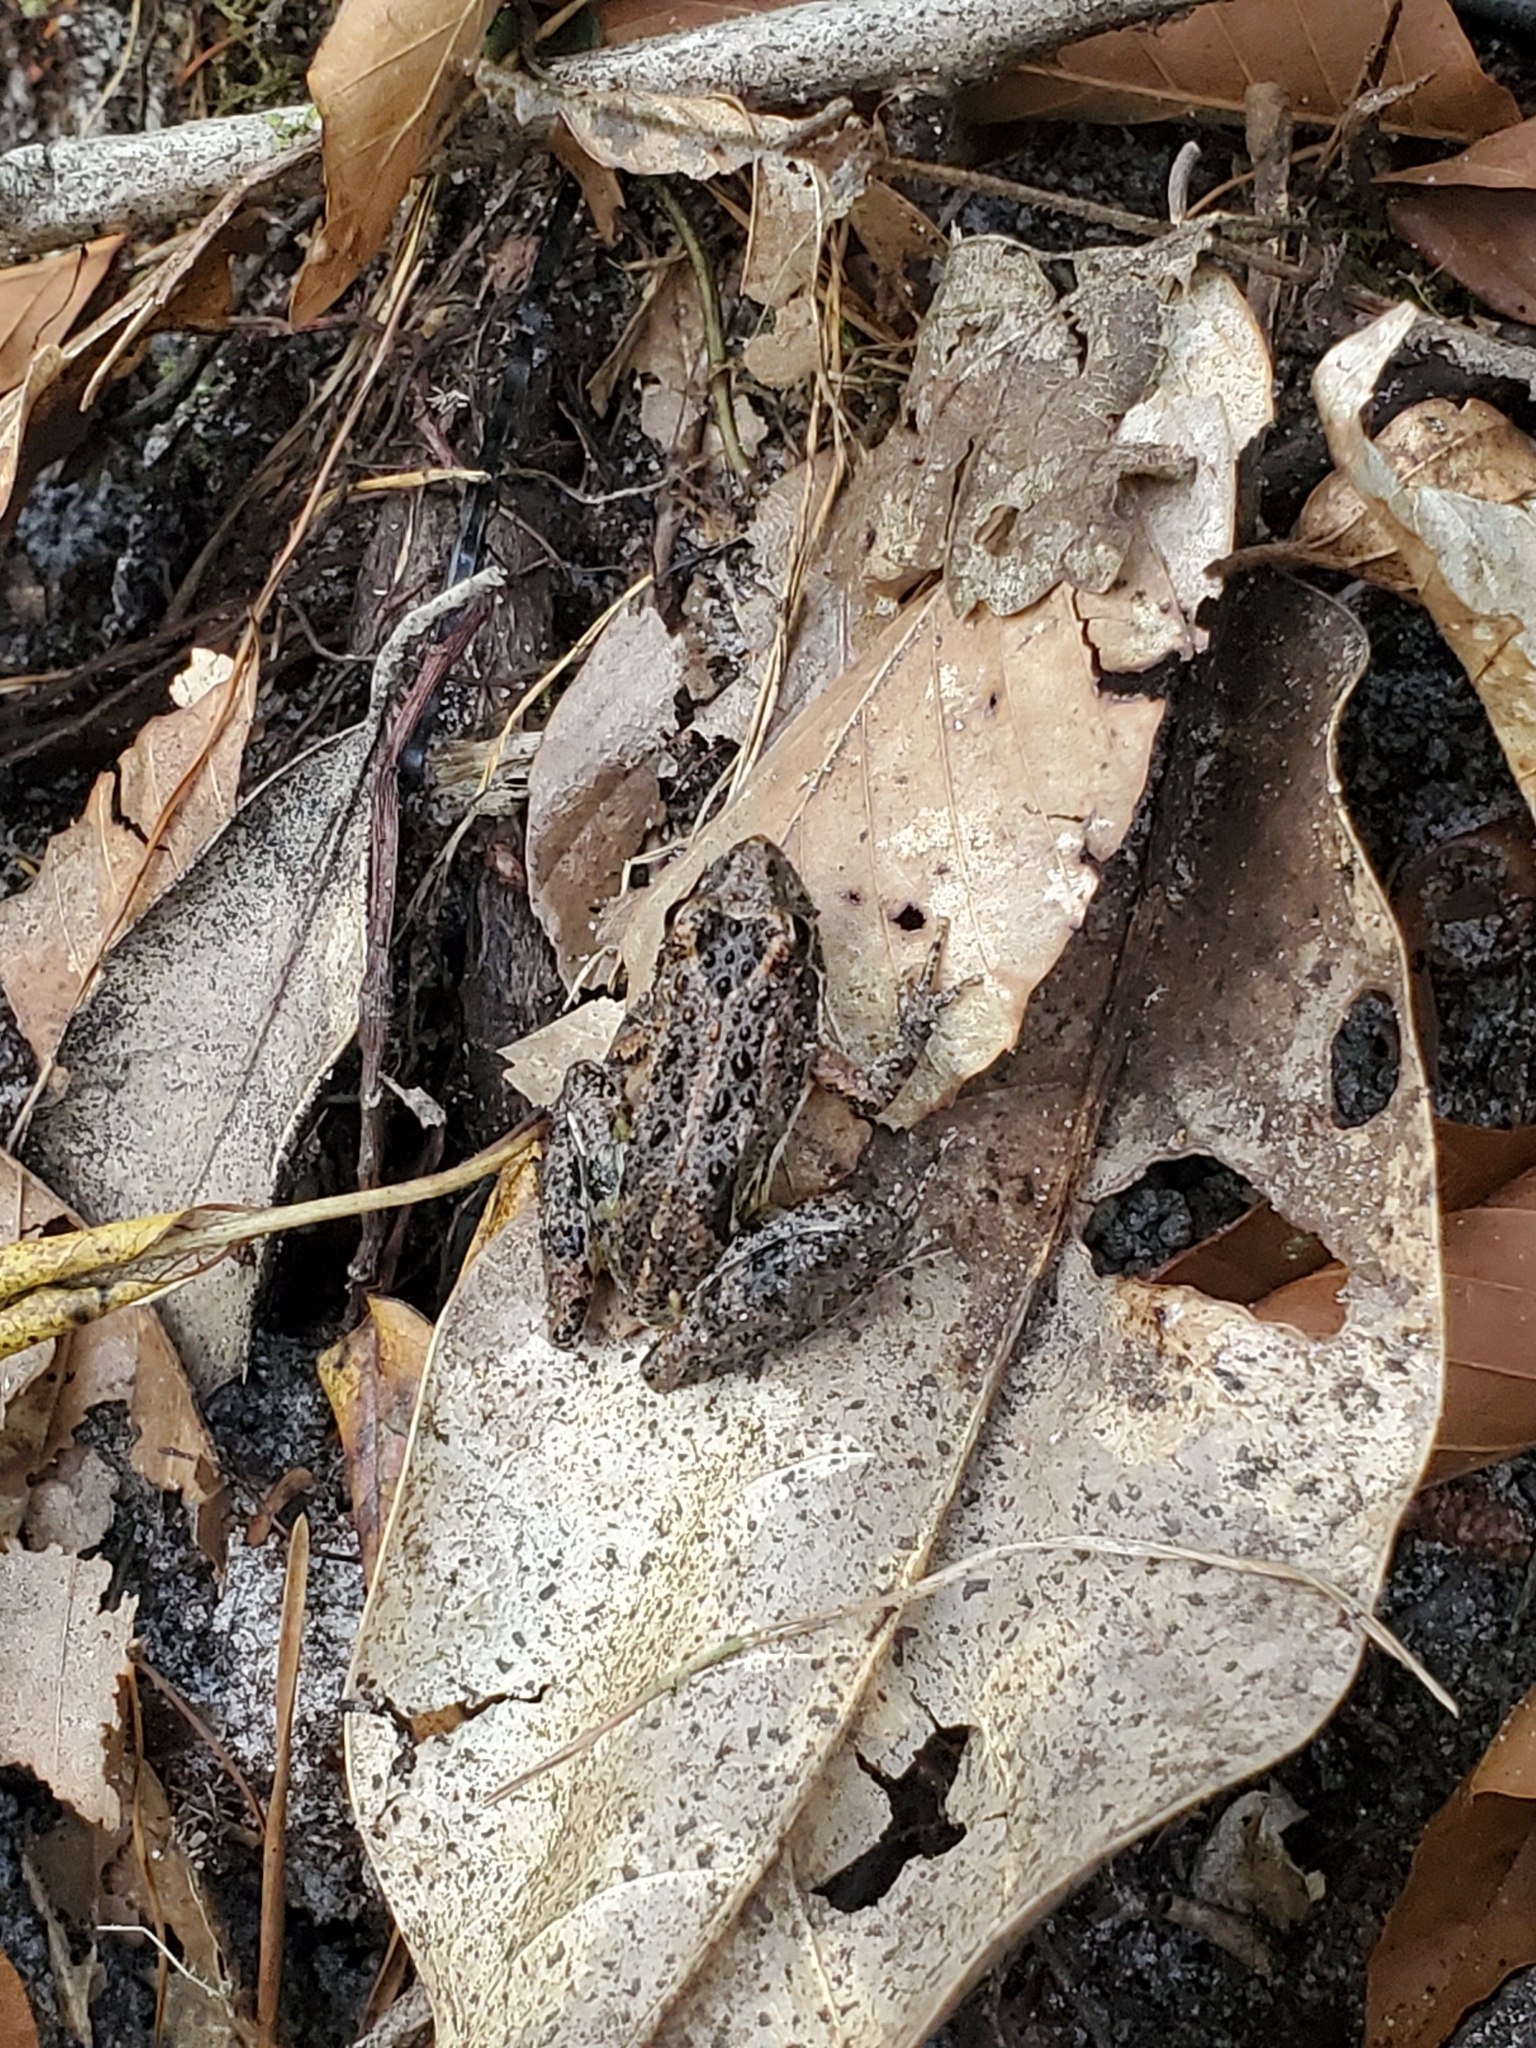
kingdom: Animalia
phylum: Chordata
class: Amphibia
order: Anura
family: Hylidae
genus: Acris
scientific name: Acris gryllus
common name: Southern cricket frog
